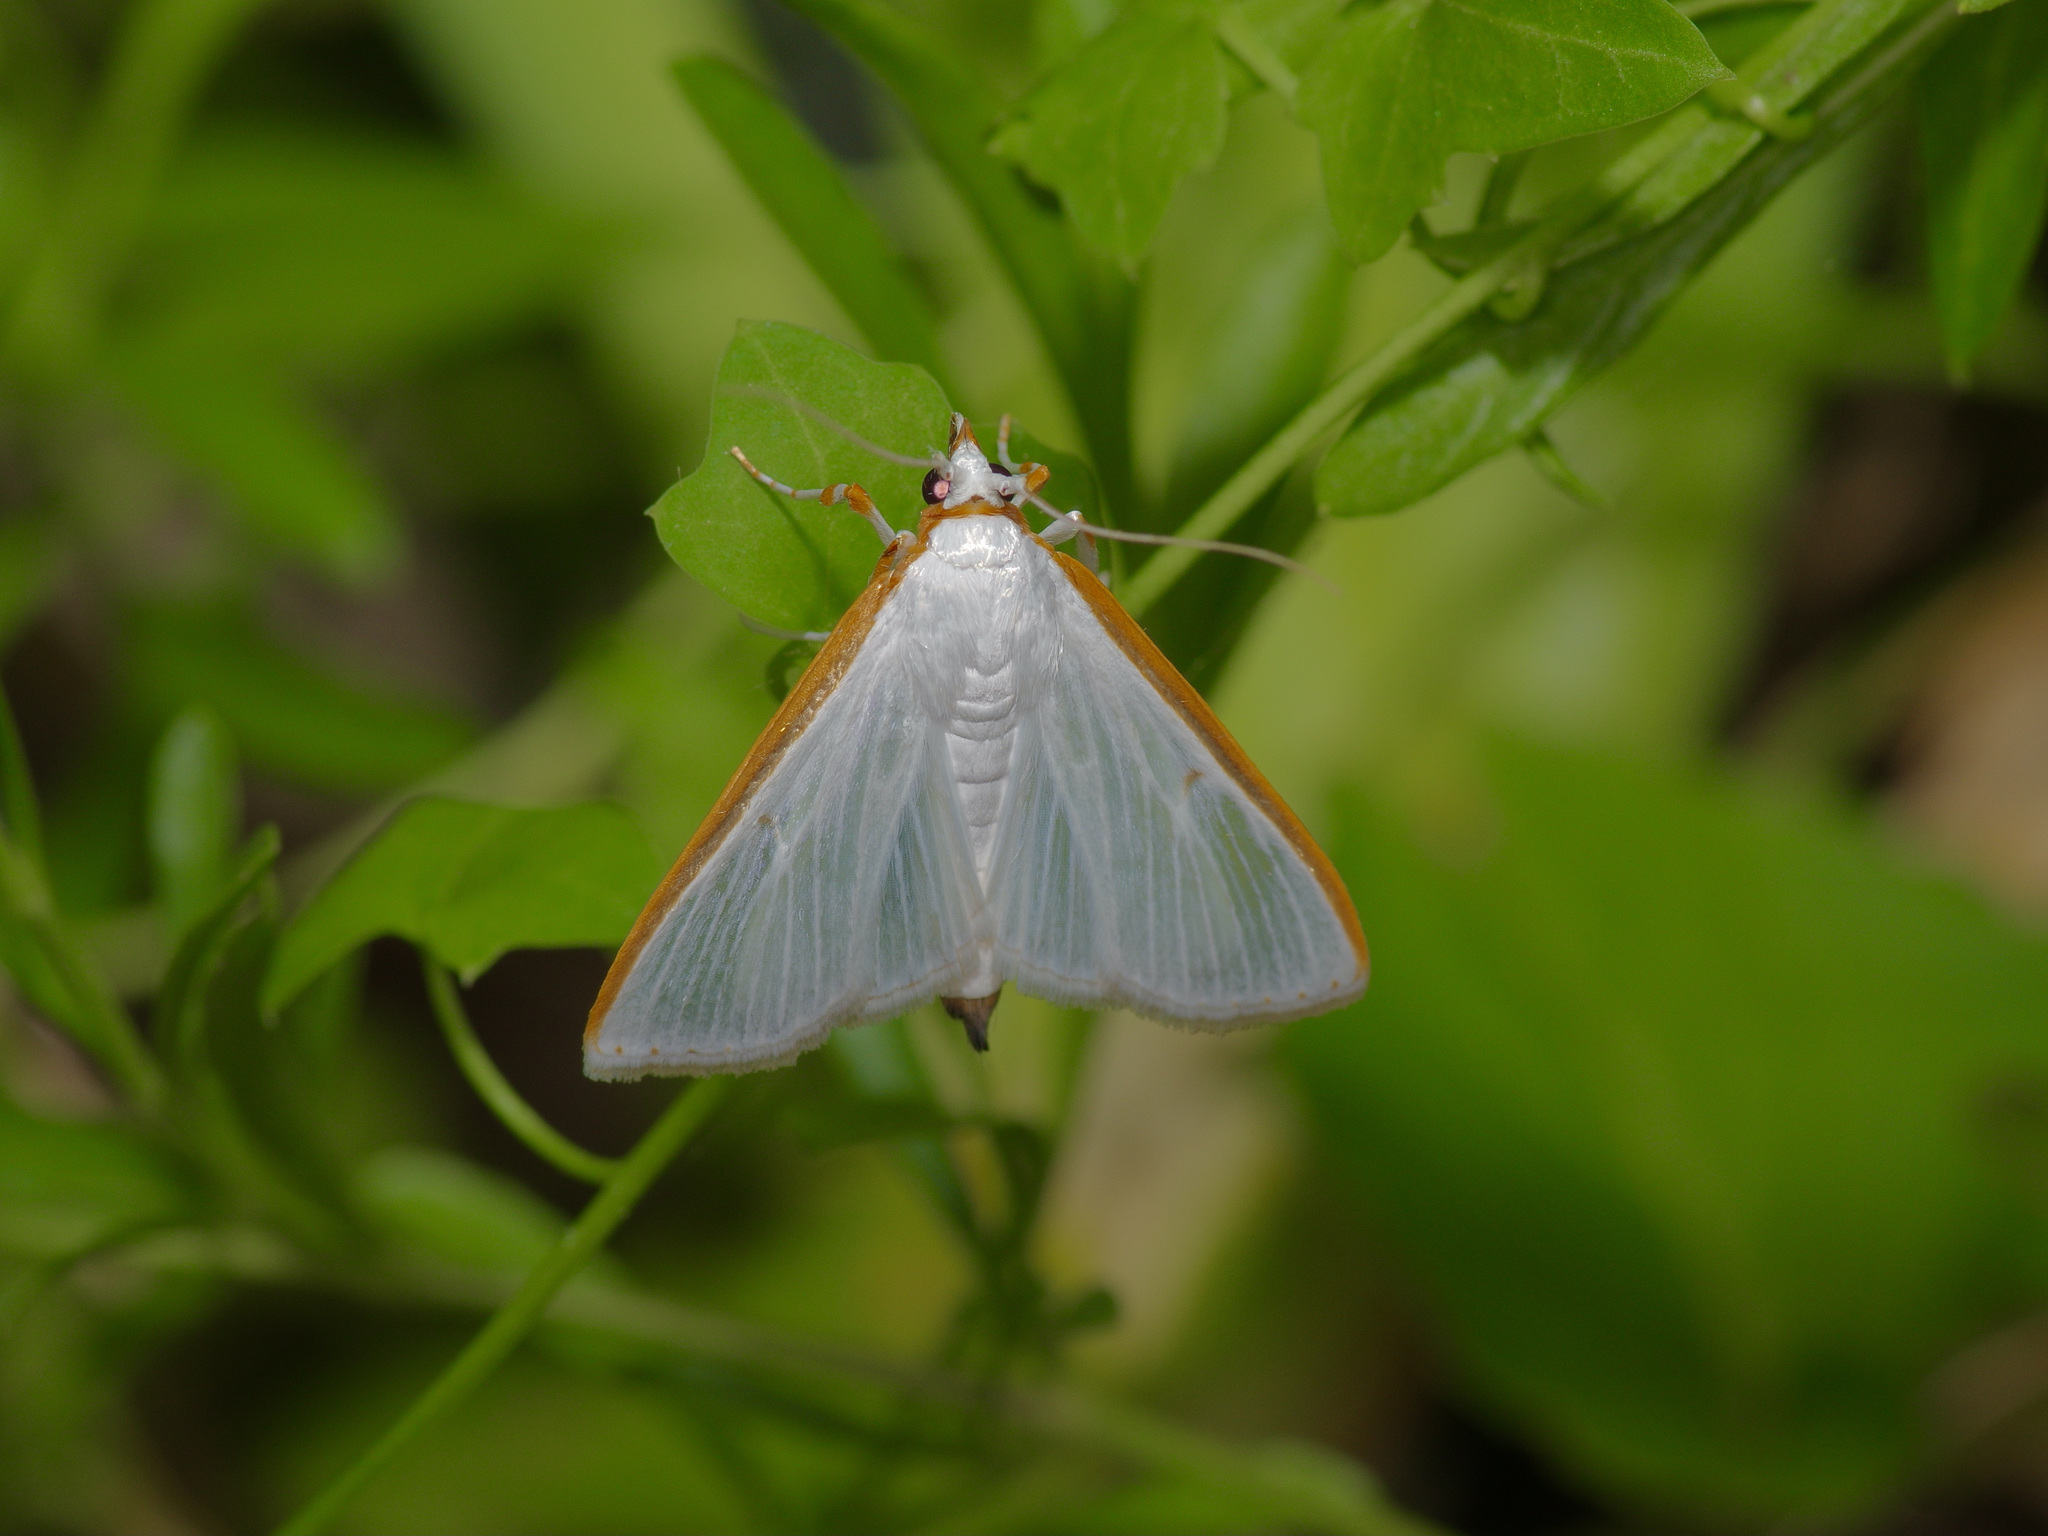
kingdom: Animalia
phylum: Arthropoda
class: Insecta
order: Lepidoptera
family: Crambidae
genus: Diaphania
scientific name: Diaphania costata
